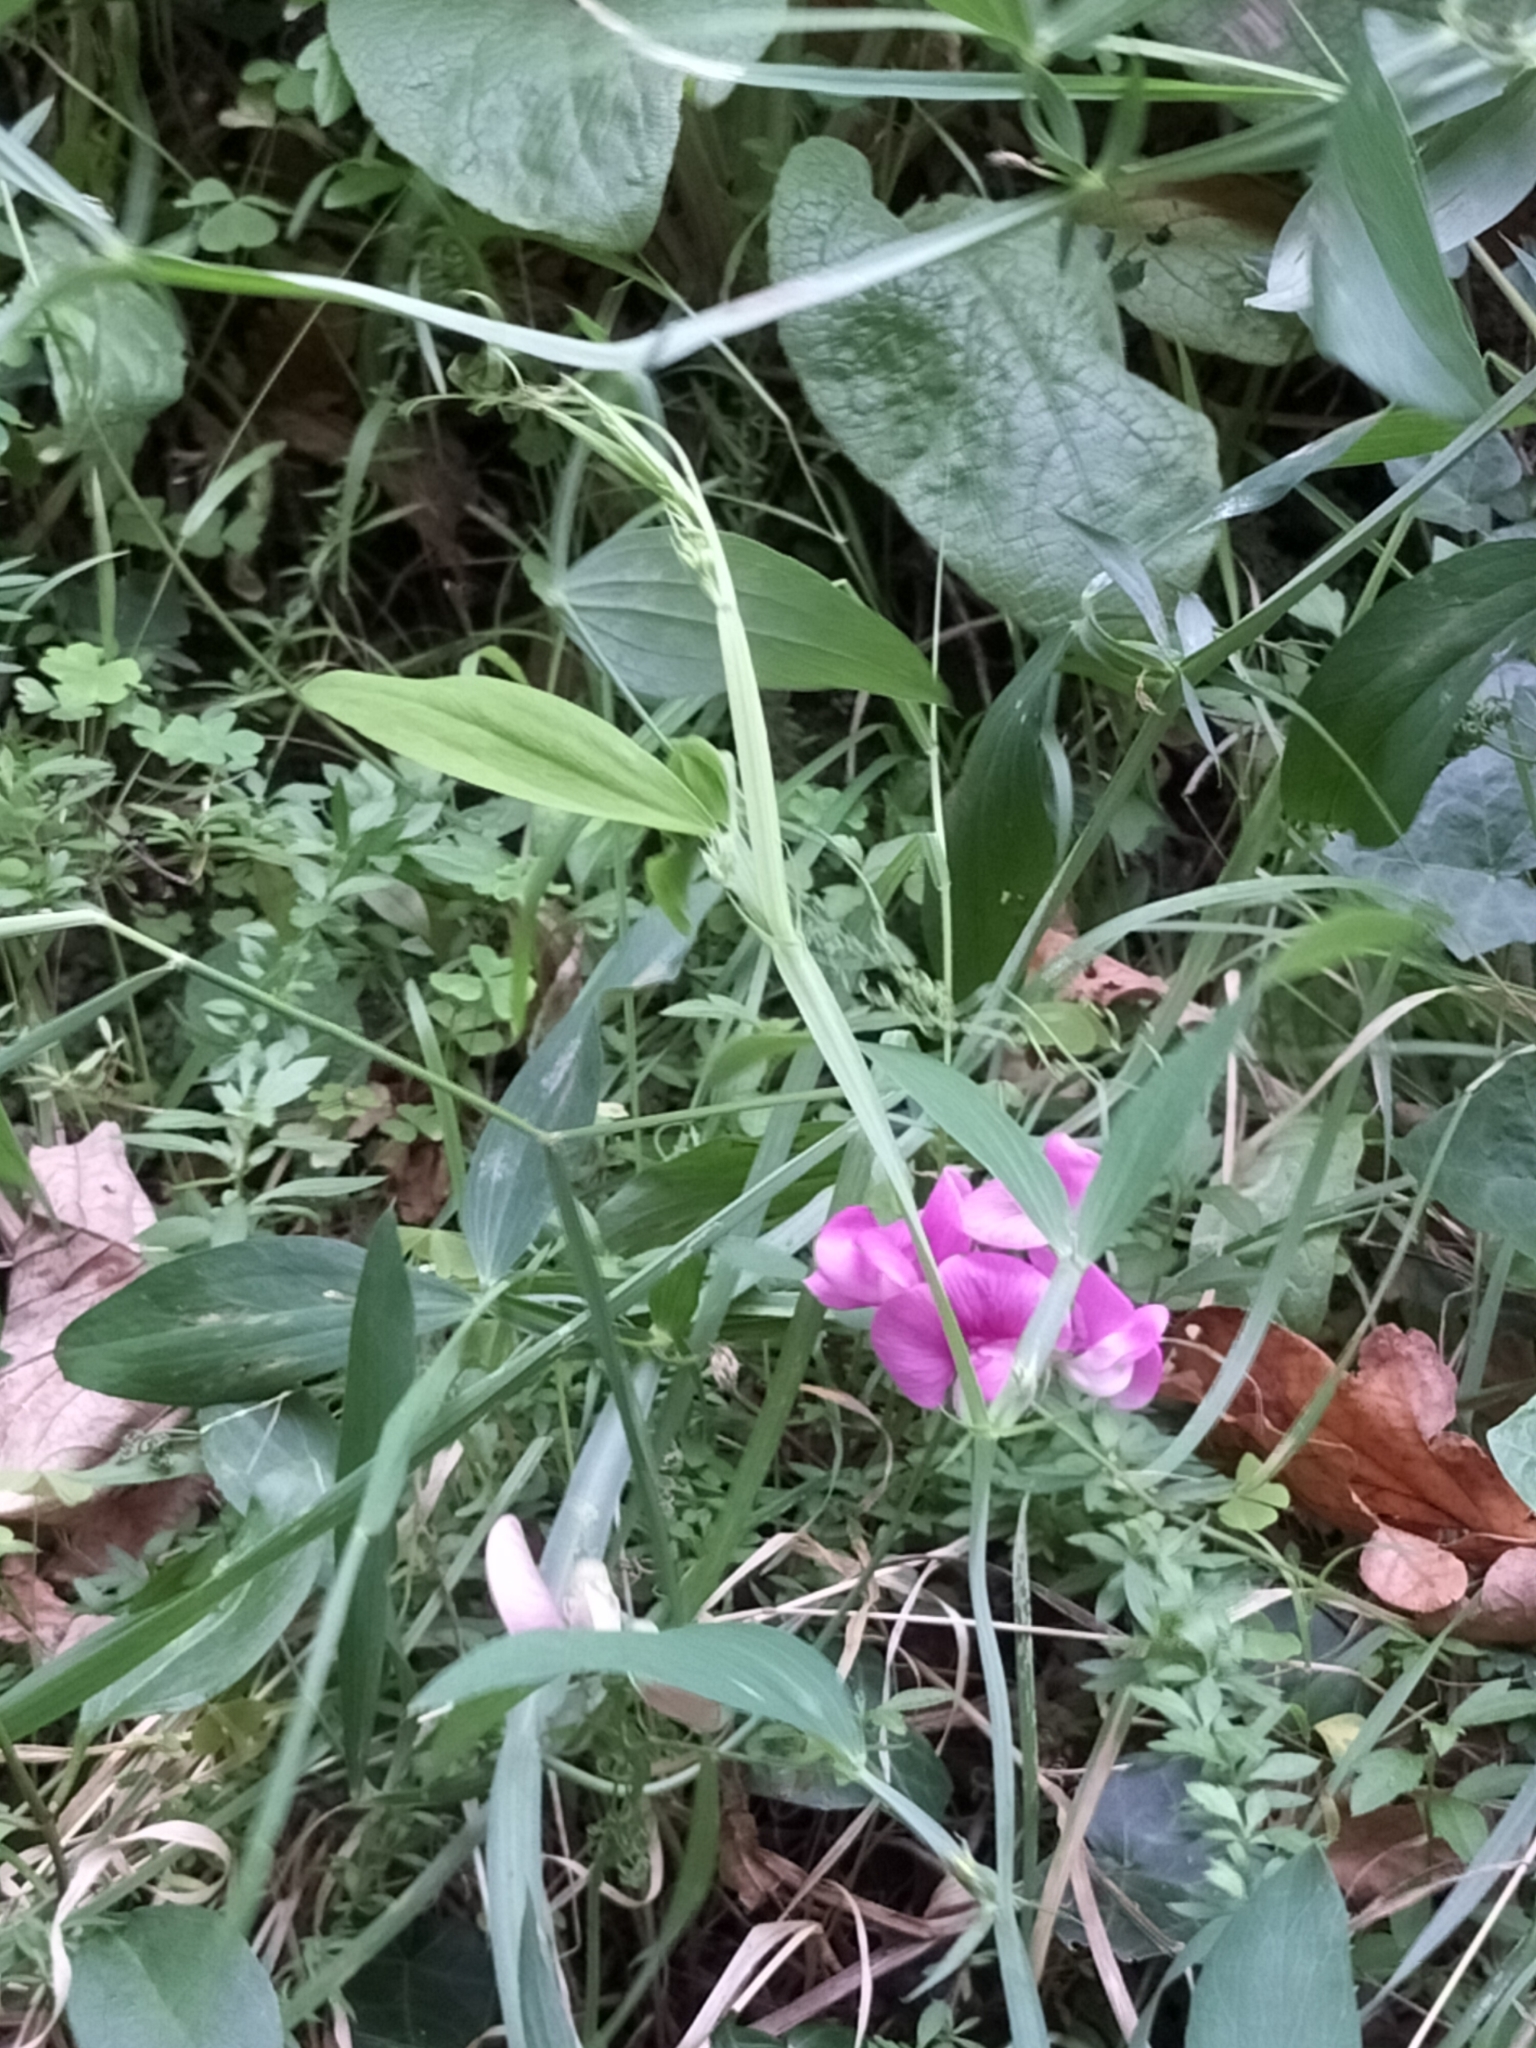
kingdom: Plantae
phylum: Tracheophyta
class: Magnoliopsida
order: Fabales
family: Fabaceae
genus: Lathyrus
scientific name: Lathyrus latifolius
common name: Perennial pea
